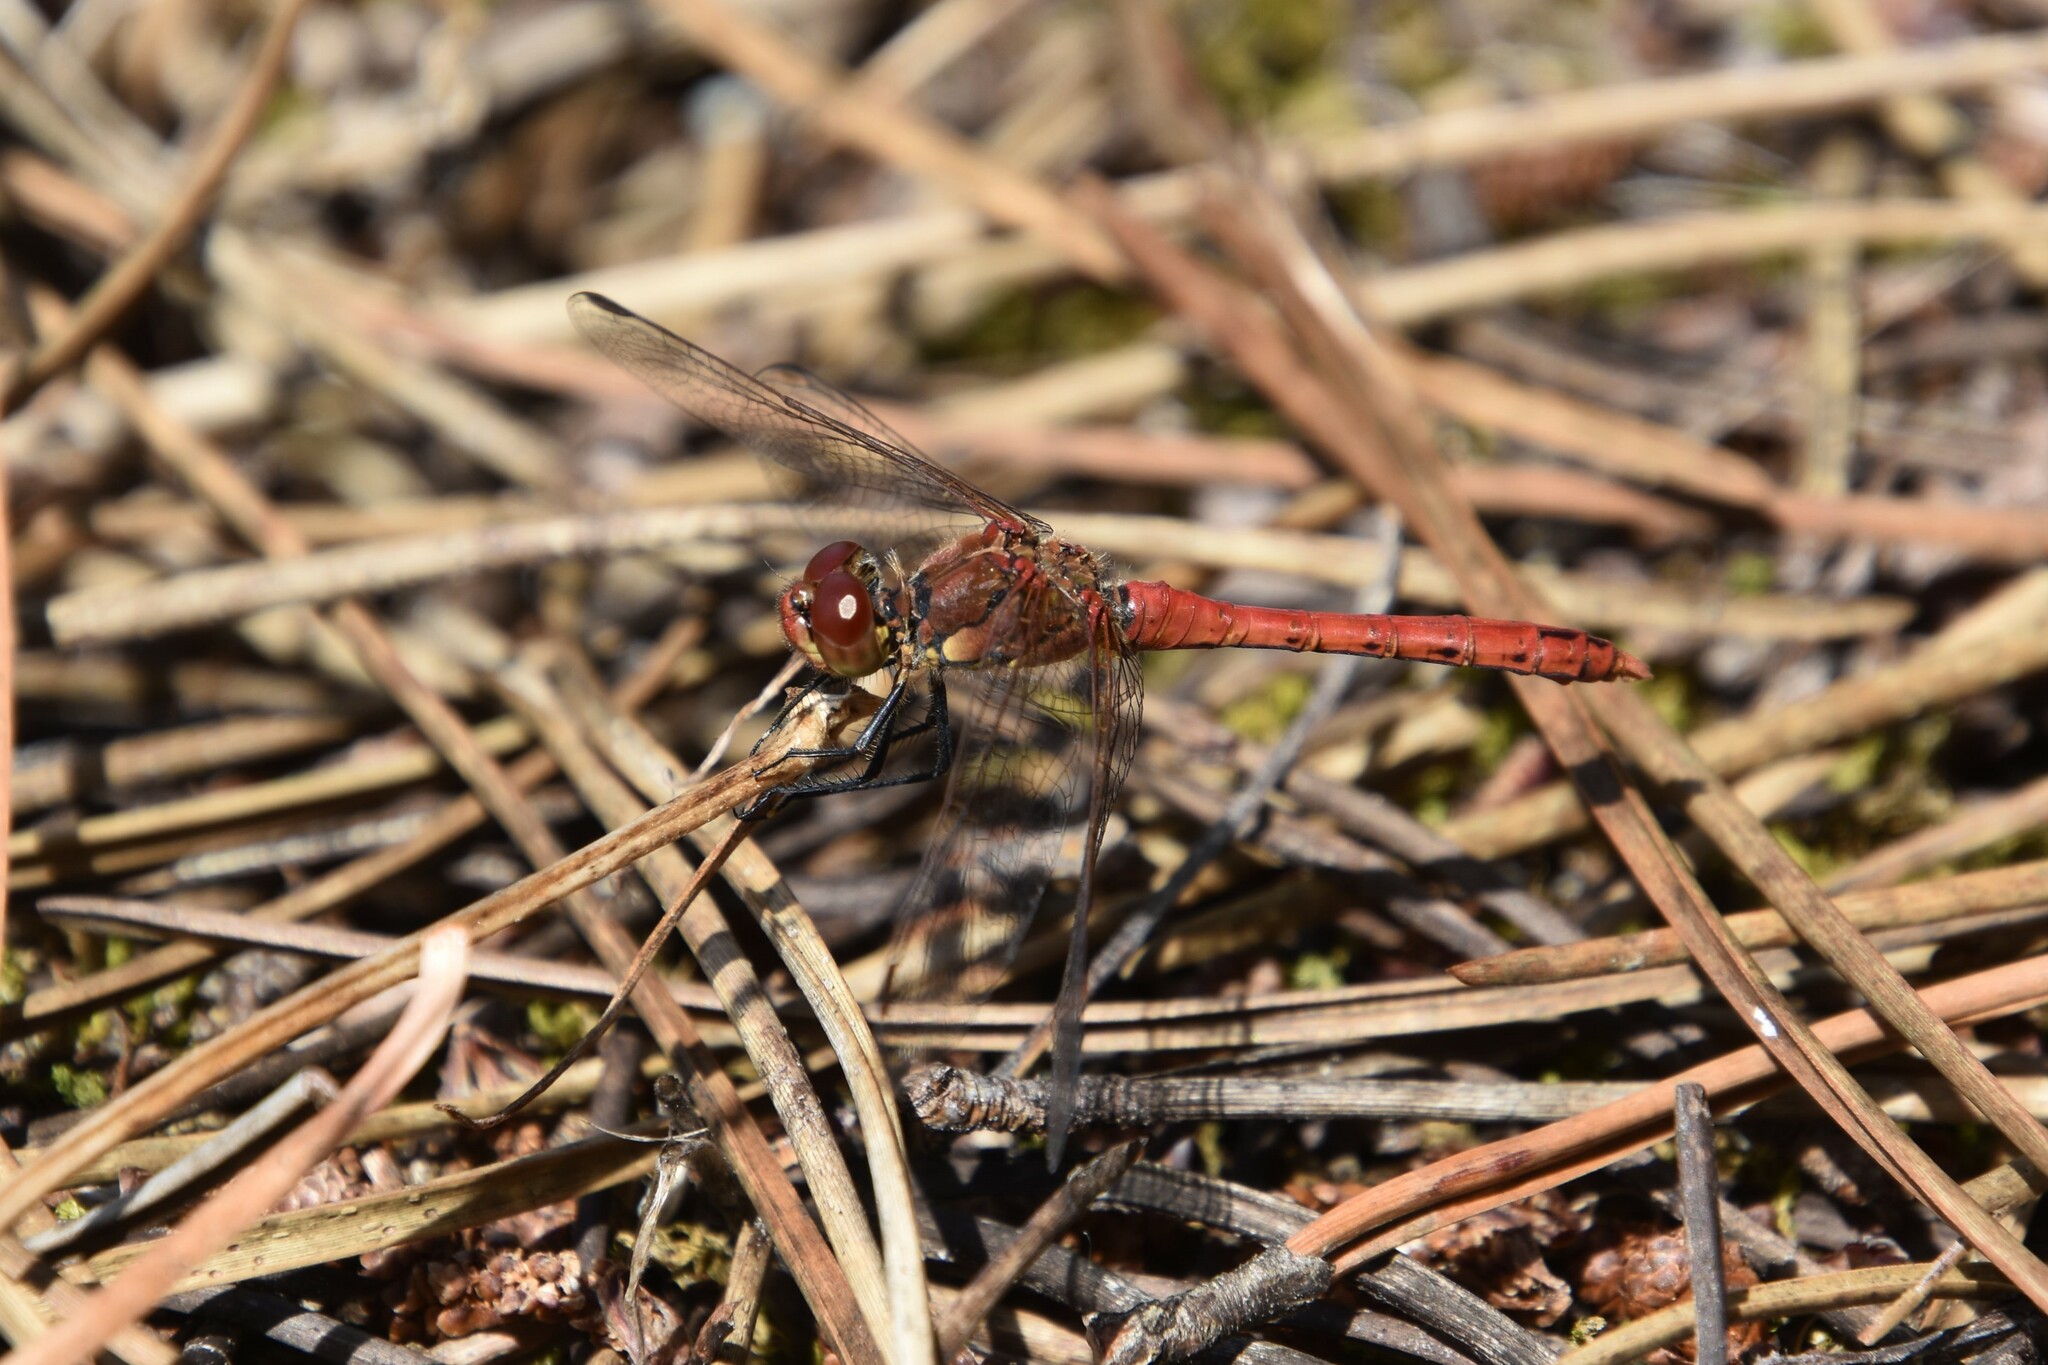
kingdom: Animalia
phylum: Arthropoda
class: Insecta
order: Odonata
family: Libellulidae
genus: Sympetrum
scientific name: Sympetrum sanguineum
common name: Ruddy darter
